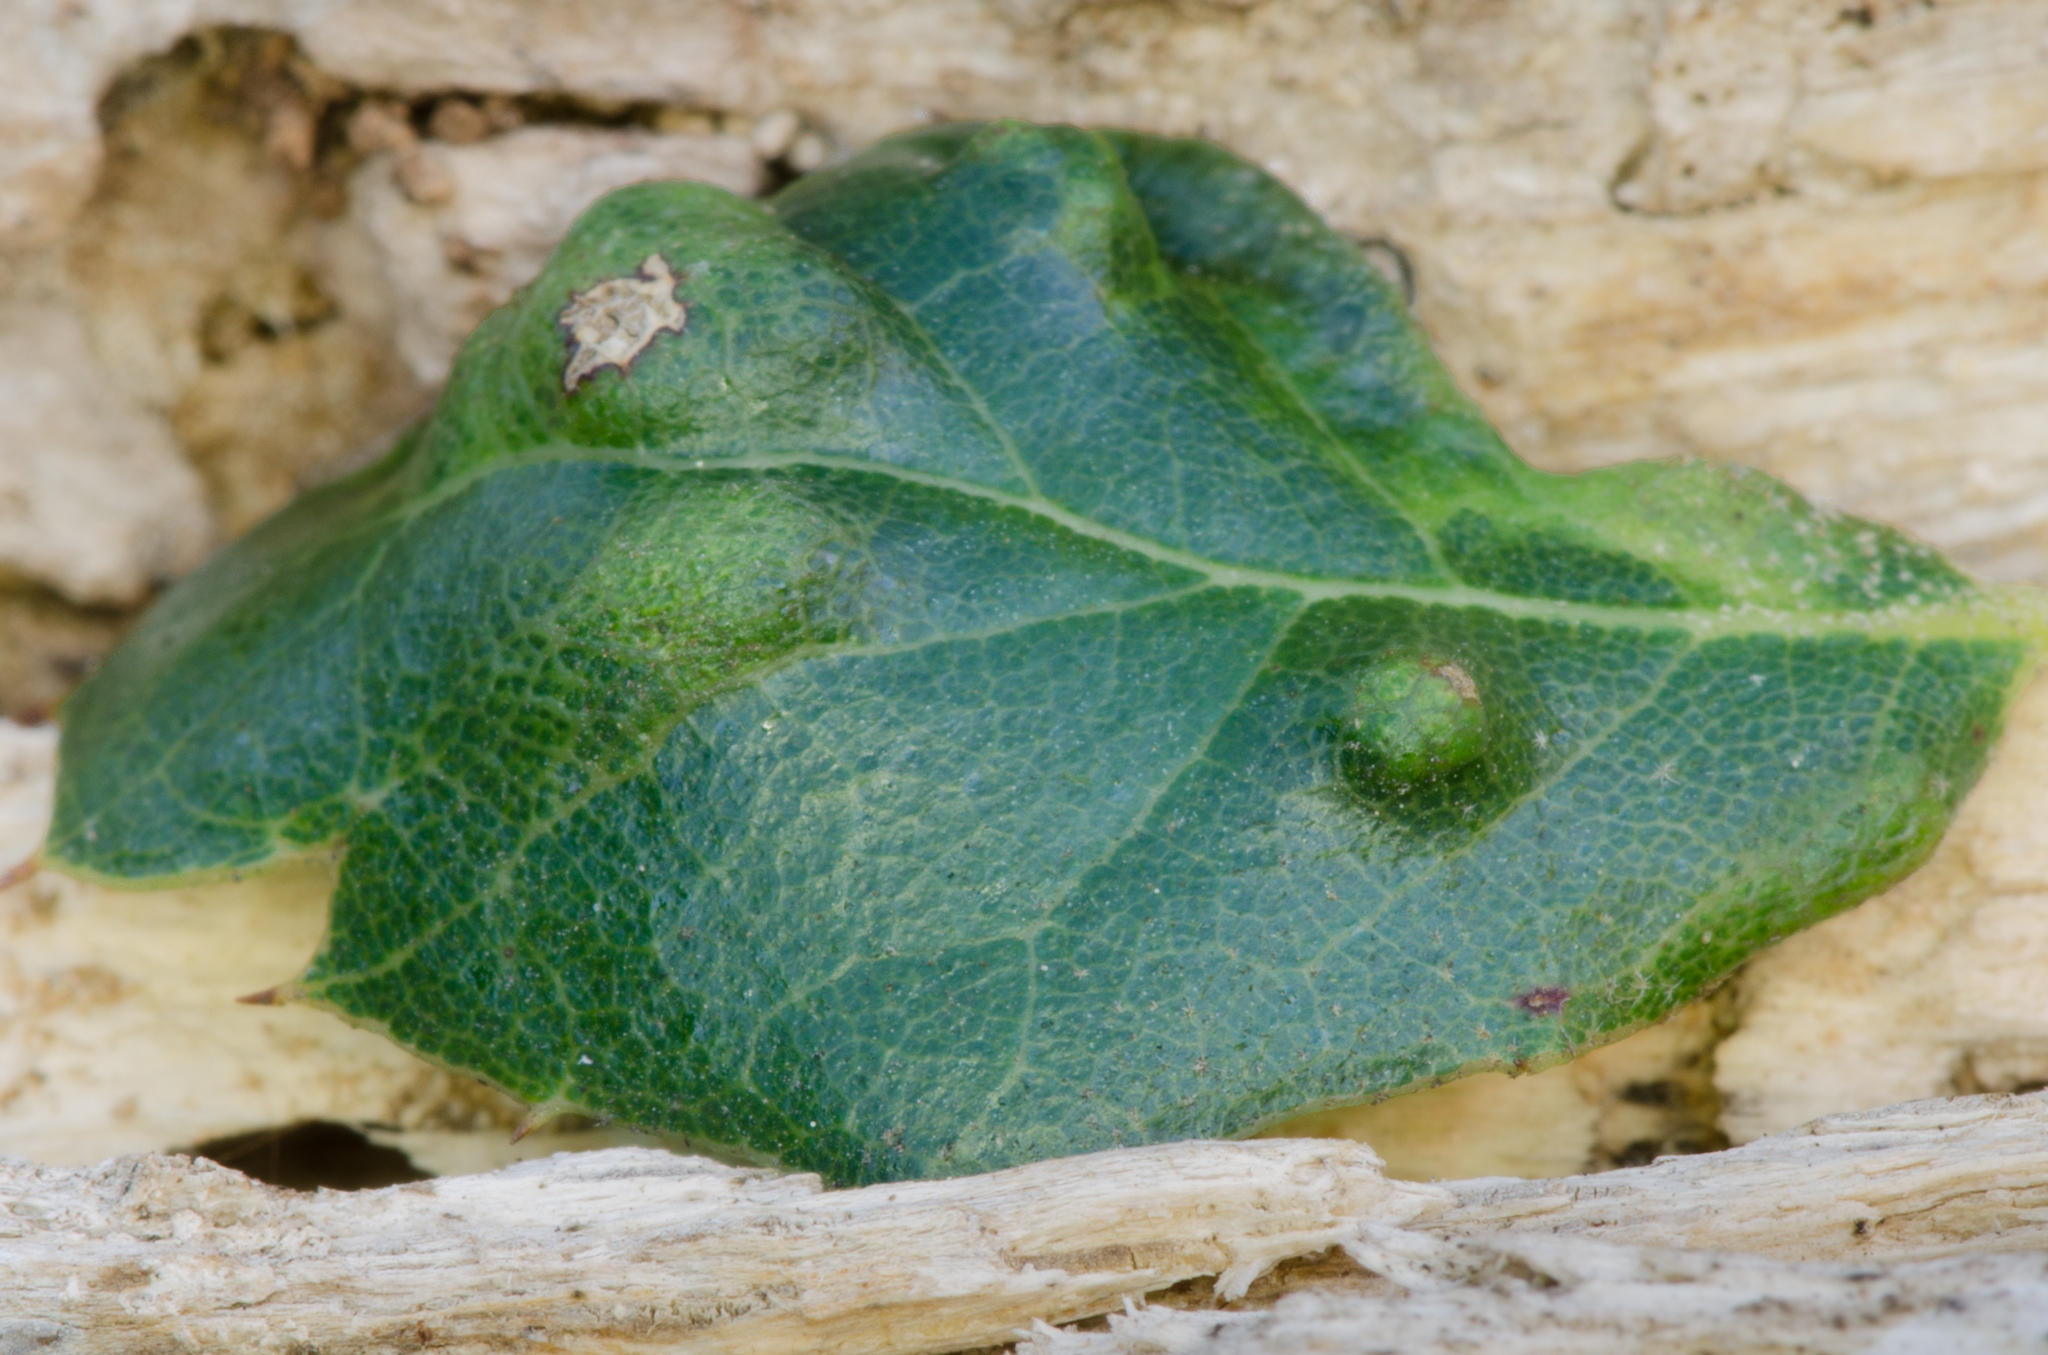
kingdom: Animalia
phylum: Arthropoda
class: Arachnida
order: Trombidiformes
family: Eriophyidae
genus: Aceria
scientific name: Aceria
